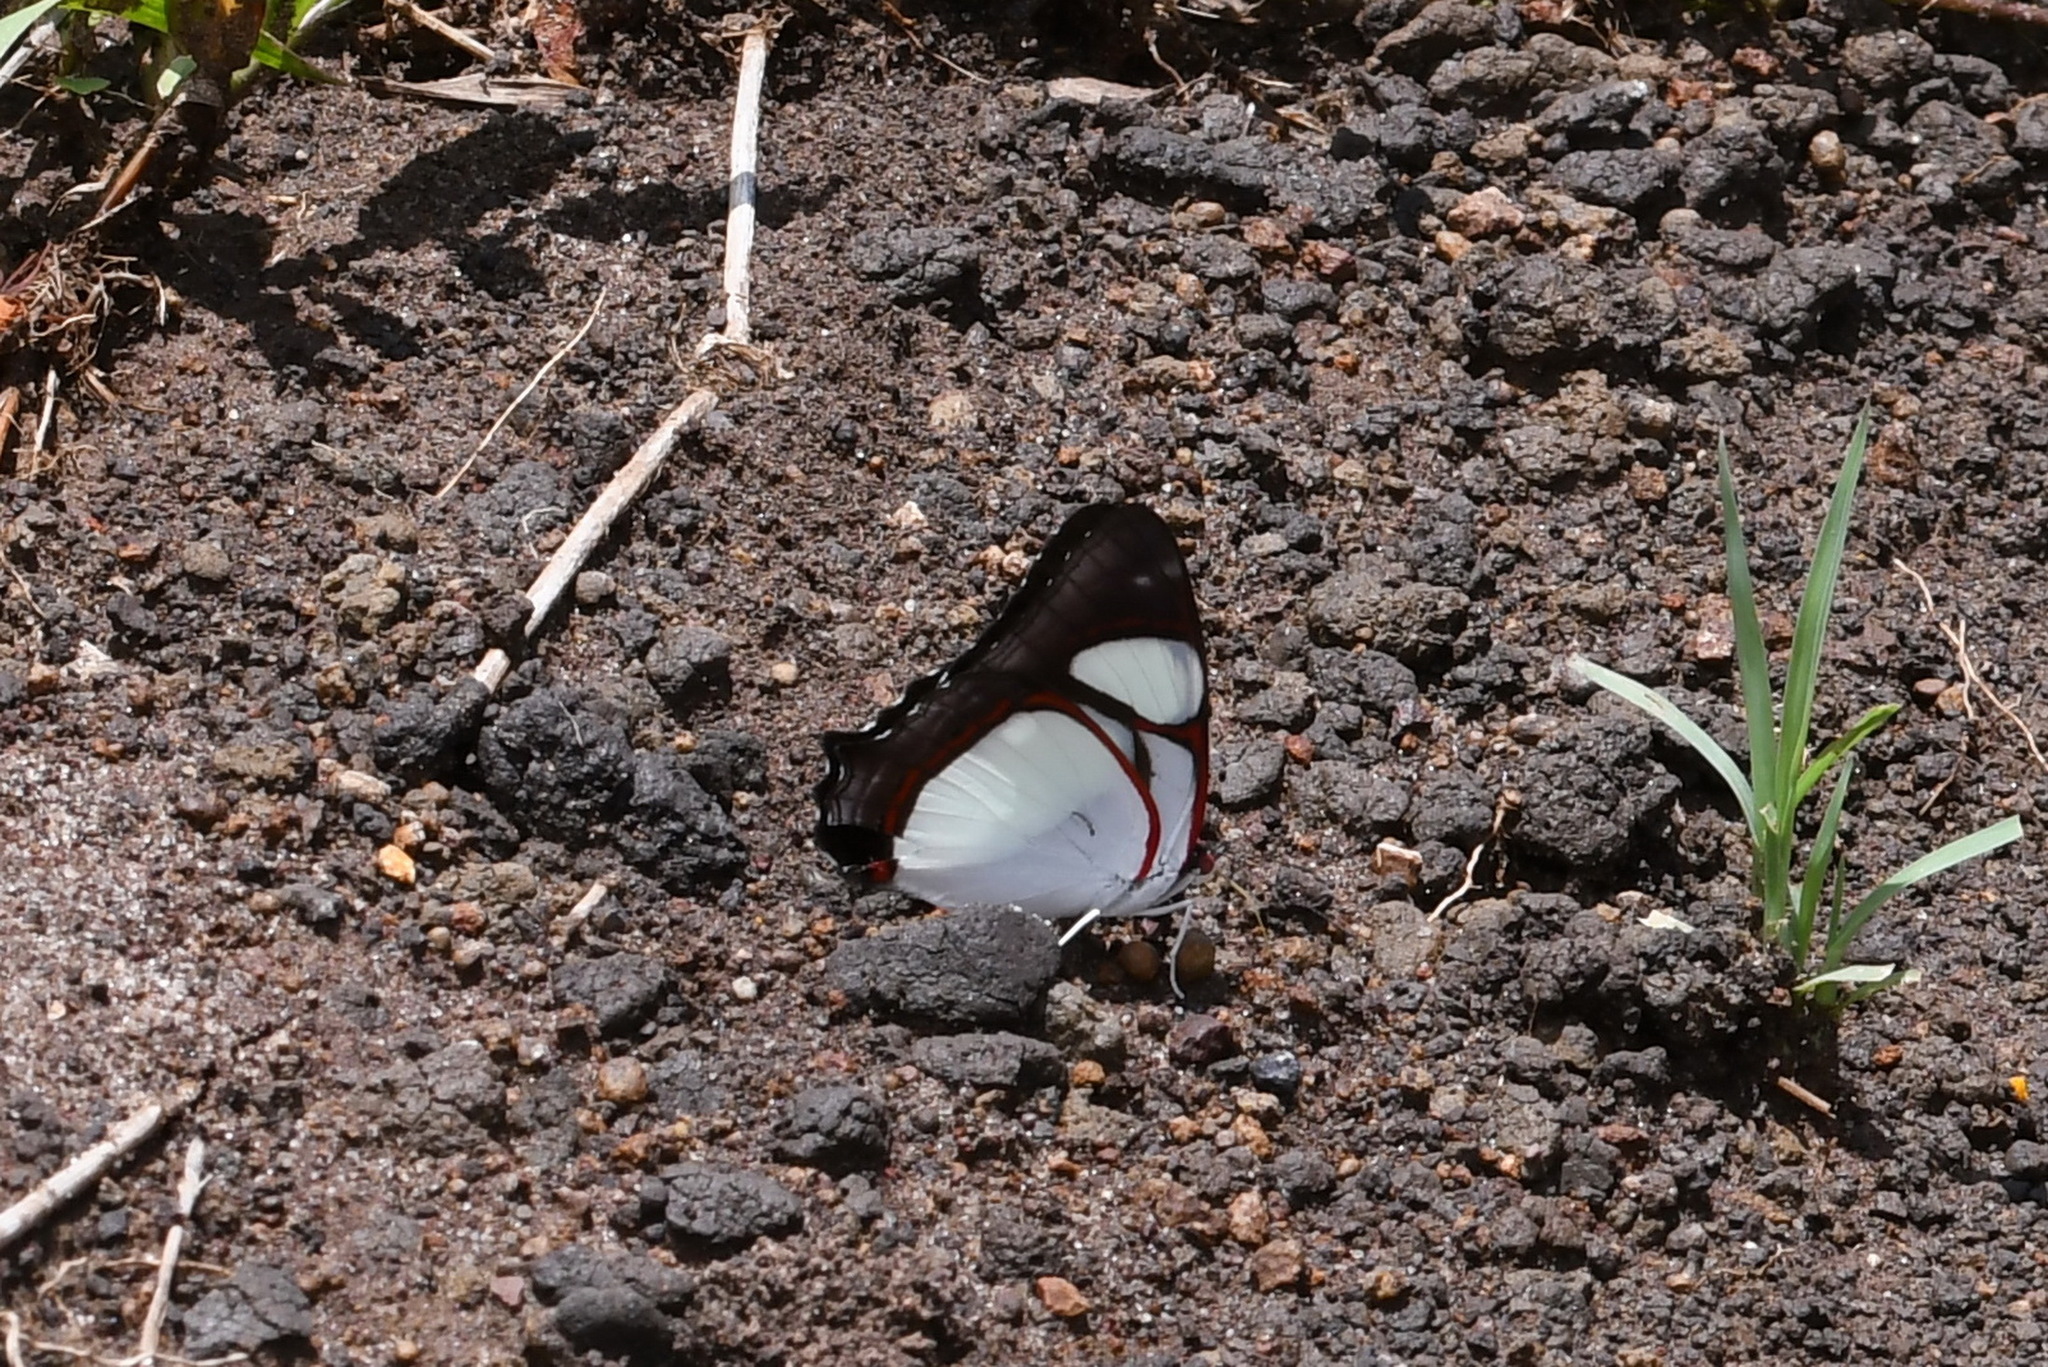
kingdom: Animalia
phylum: Arthropoda
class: Insecta
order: Lepidoptera
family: Nymphalidae
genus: Pyrrhogyra
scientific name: Pyrrhogyra neaerea
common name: Leading red-ring
